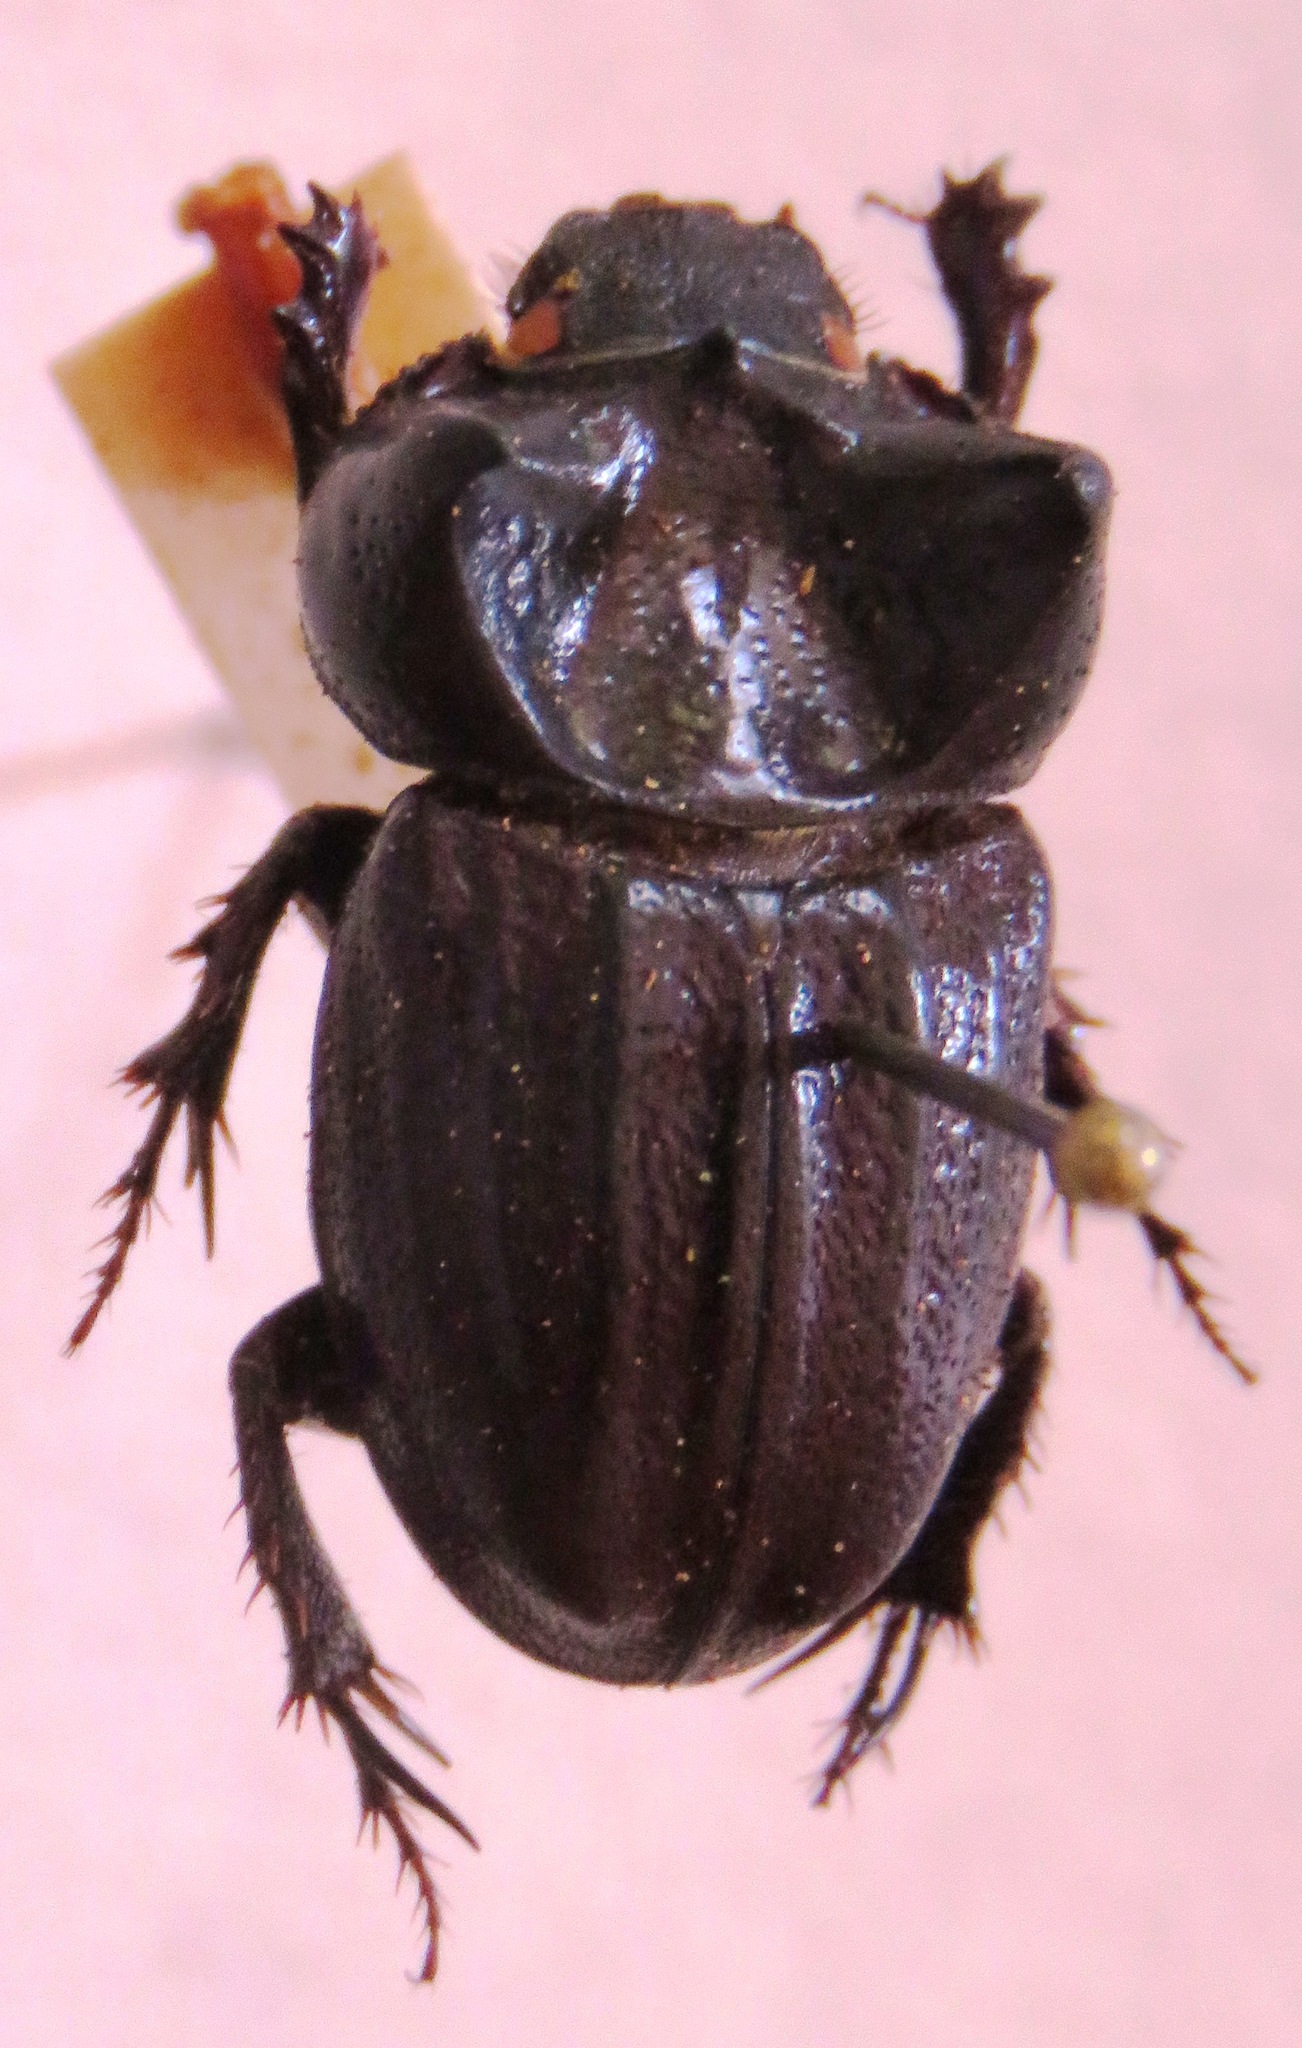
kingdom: Animalia
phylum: Arthropoda
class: Insecta
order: Coleoptera
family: Scarabaeidae
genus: Aegidium
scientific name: Aegidium cribratum
